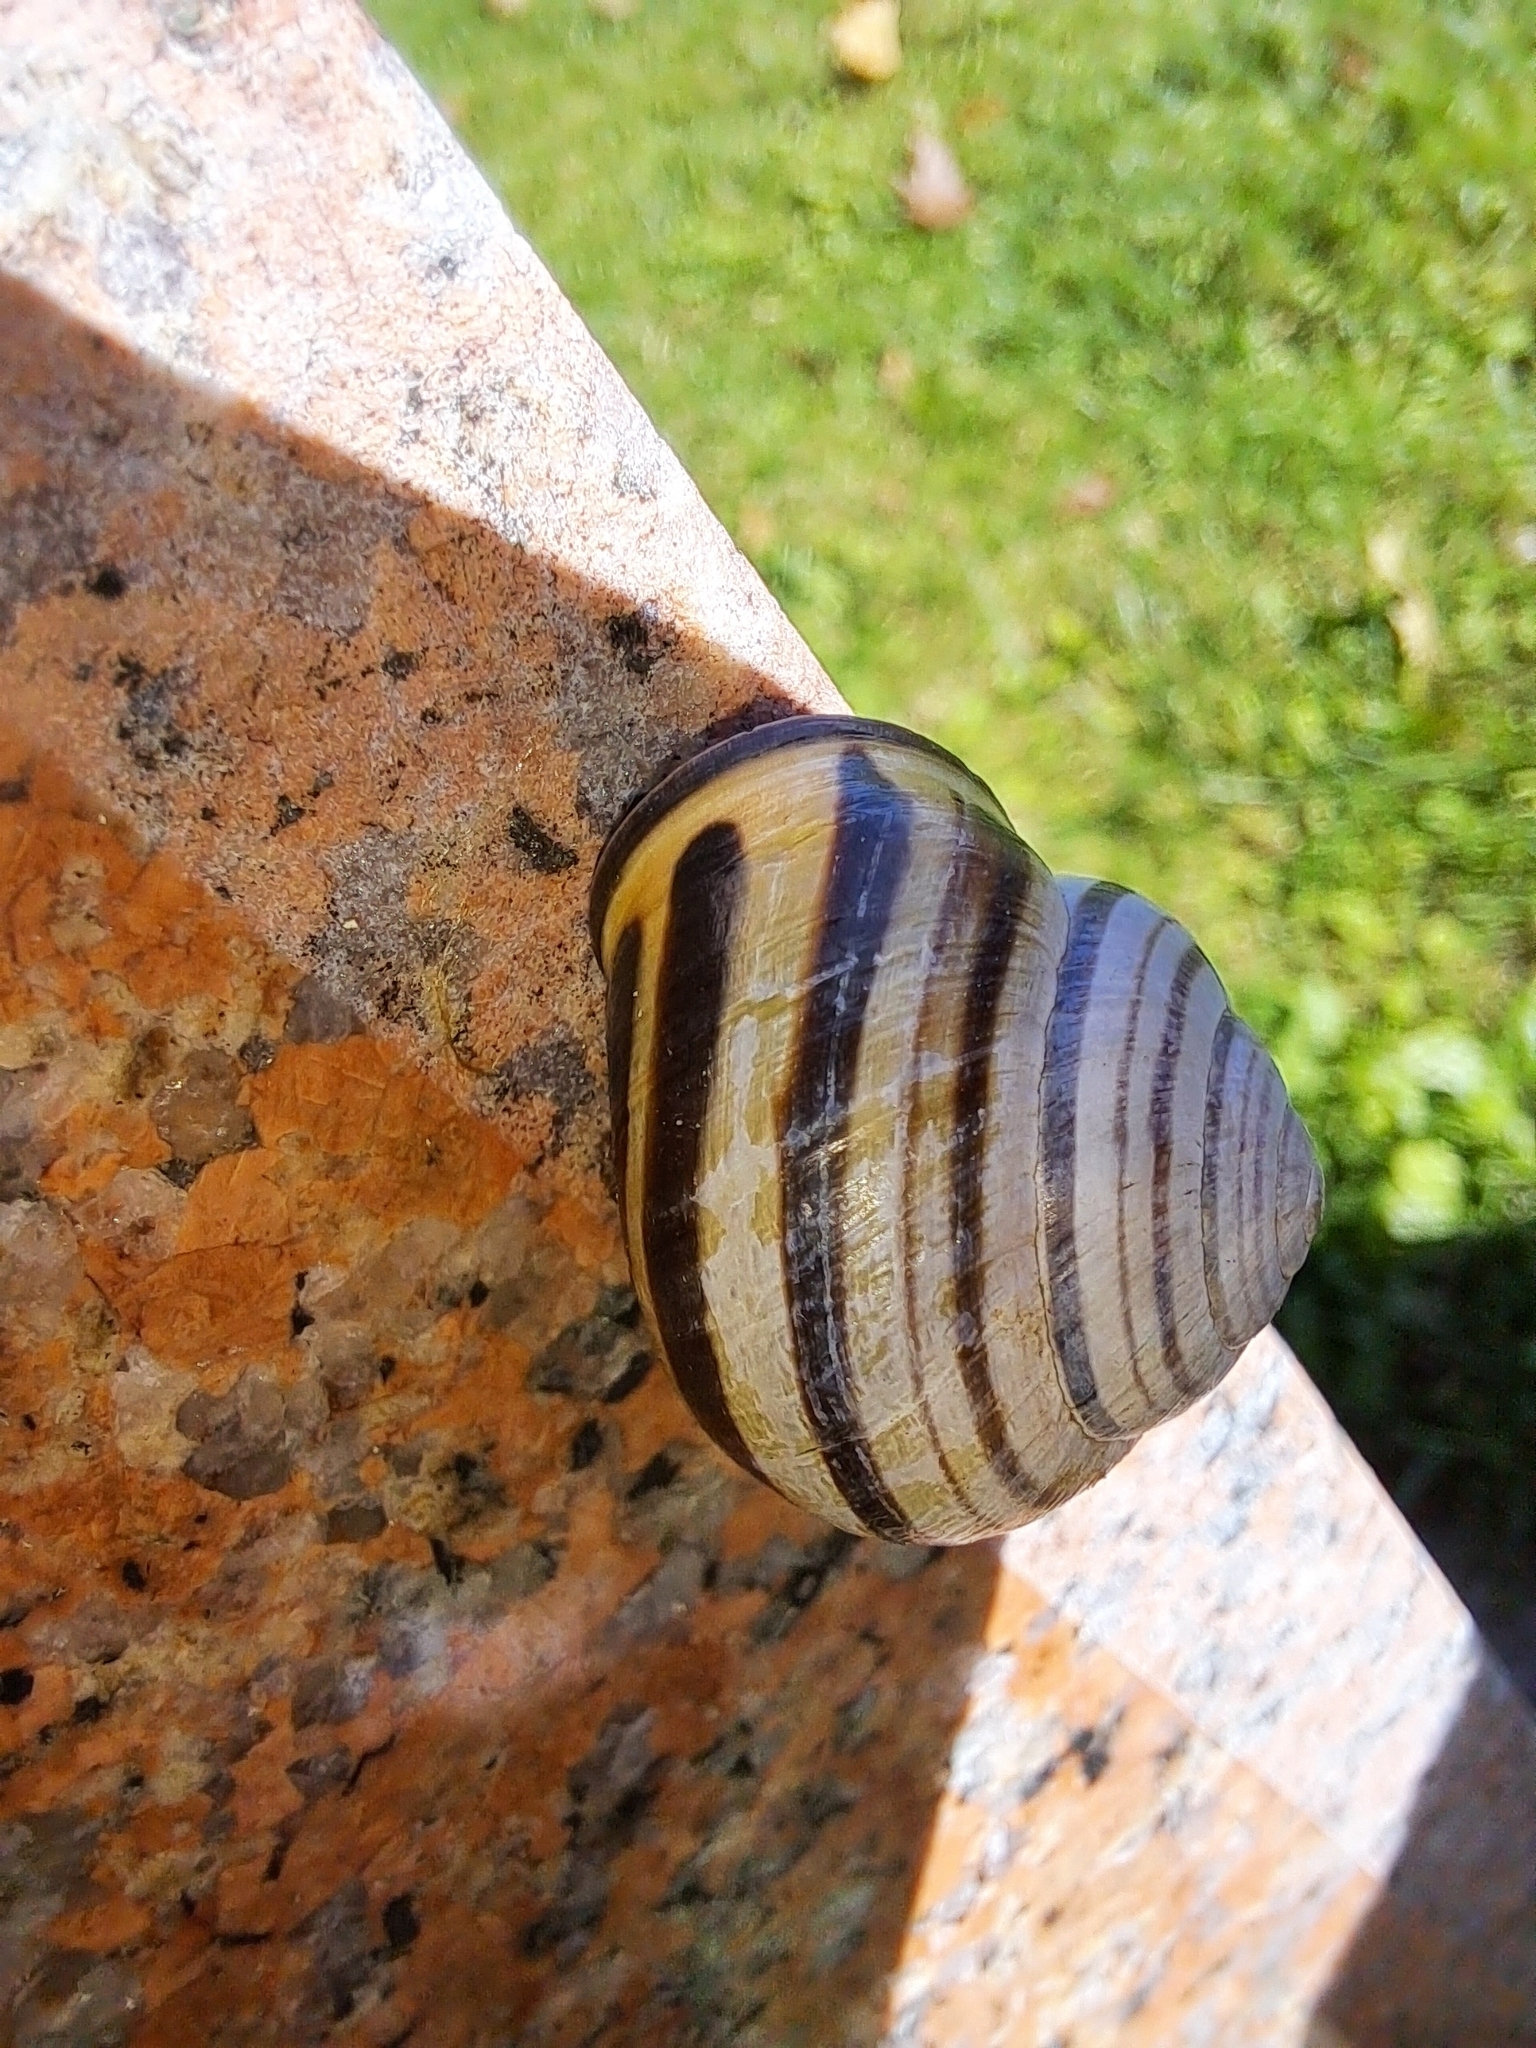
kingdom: Animalia
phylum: Mollusca
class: Gastropoda
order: Stylommatophora
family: Helicidae
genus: Cepaea
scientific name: Cepaea nemoralis
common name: Grovesnail
